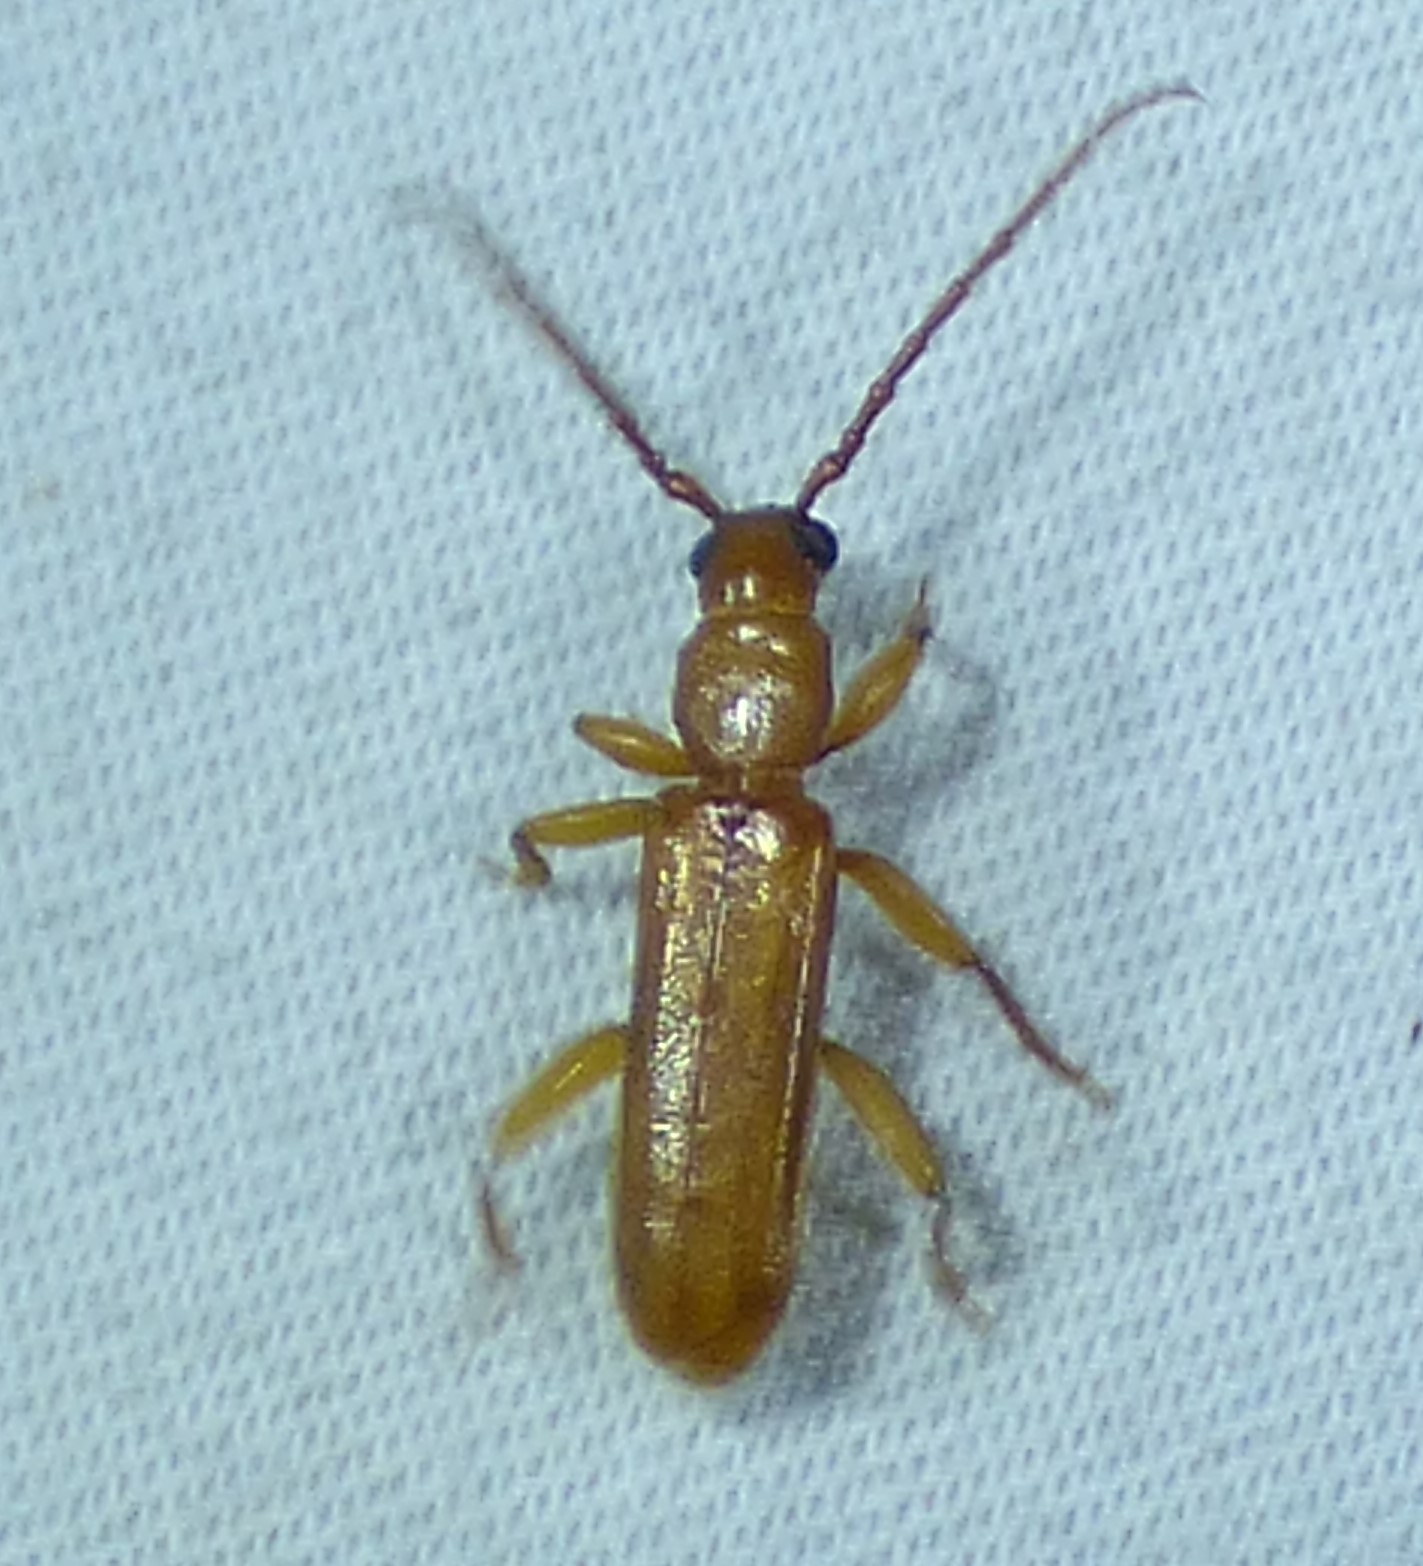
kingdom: Animalia
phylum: Arthropoda
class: Insecta
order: Coleoptera
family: Cerambycidae
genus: Smodicum
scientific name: Smodicum cucujiforme
